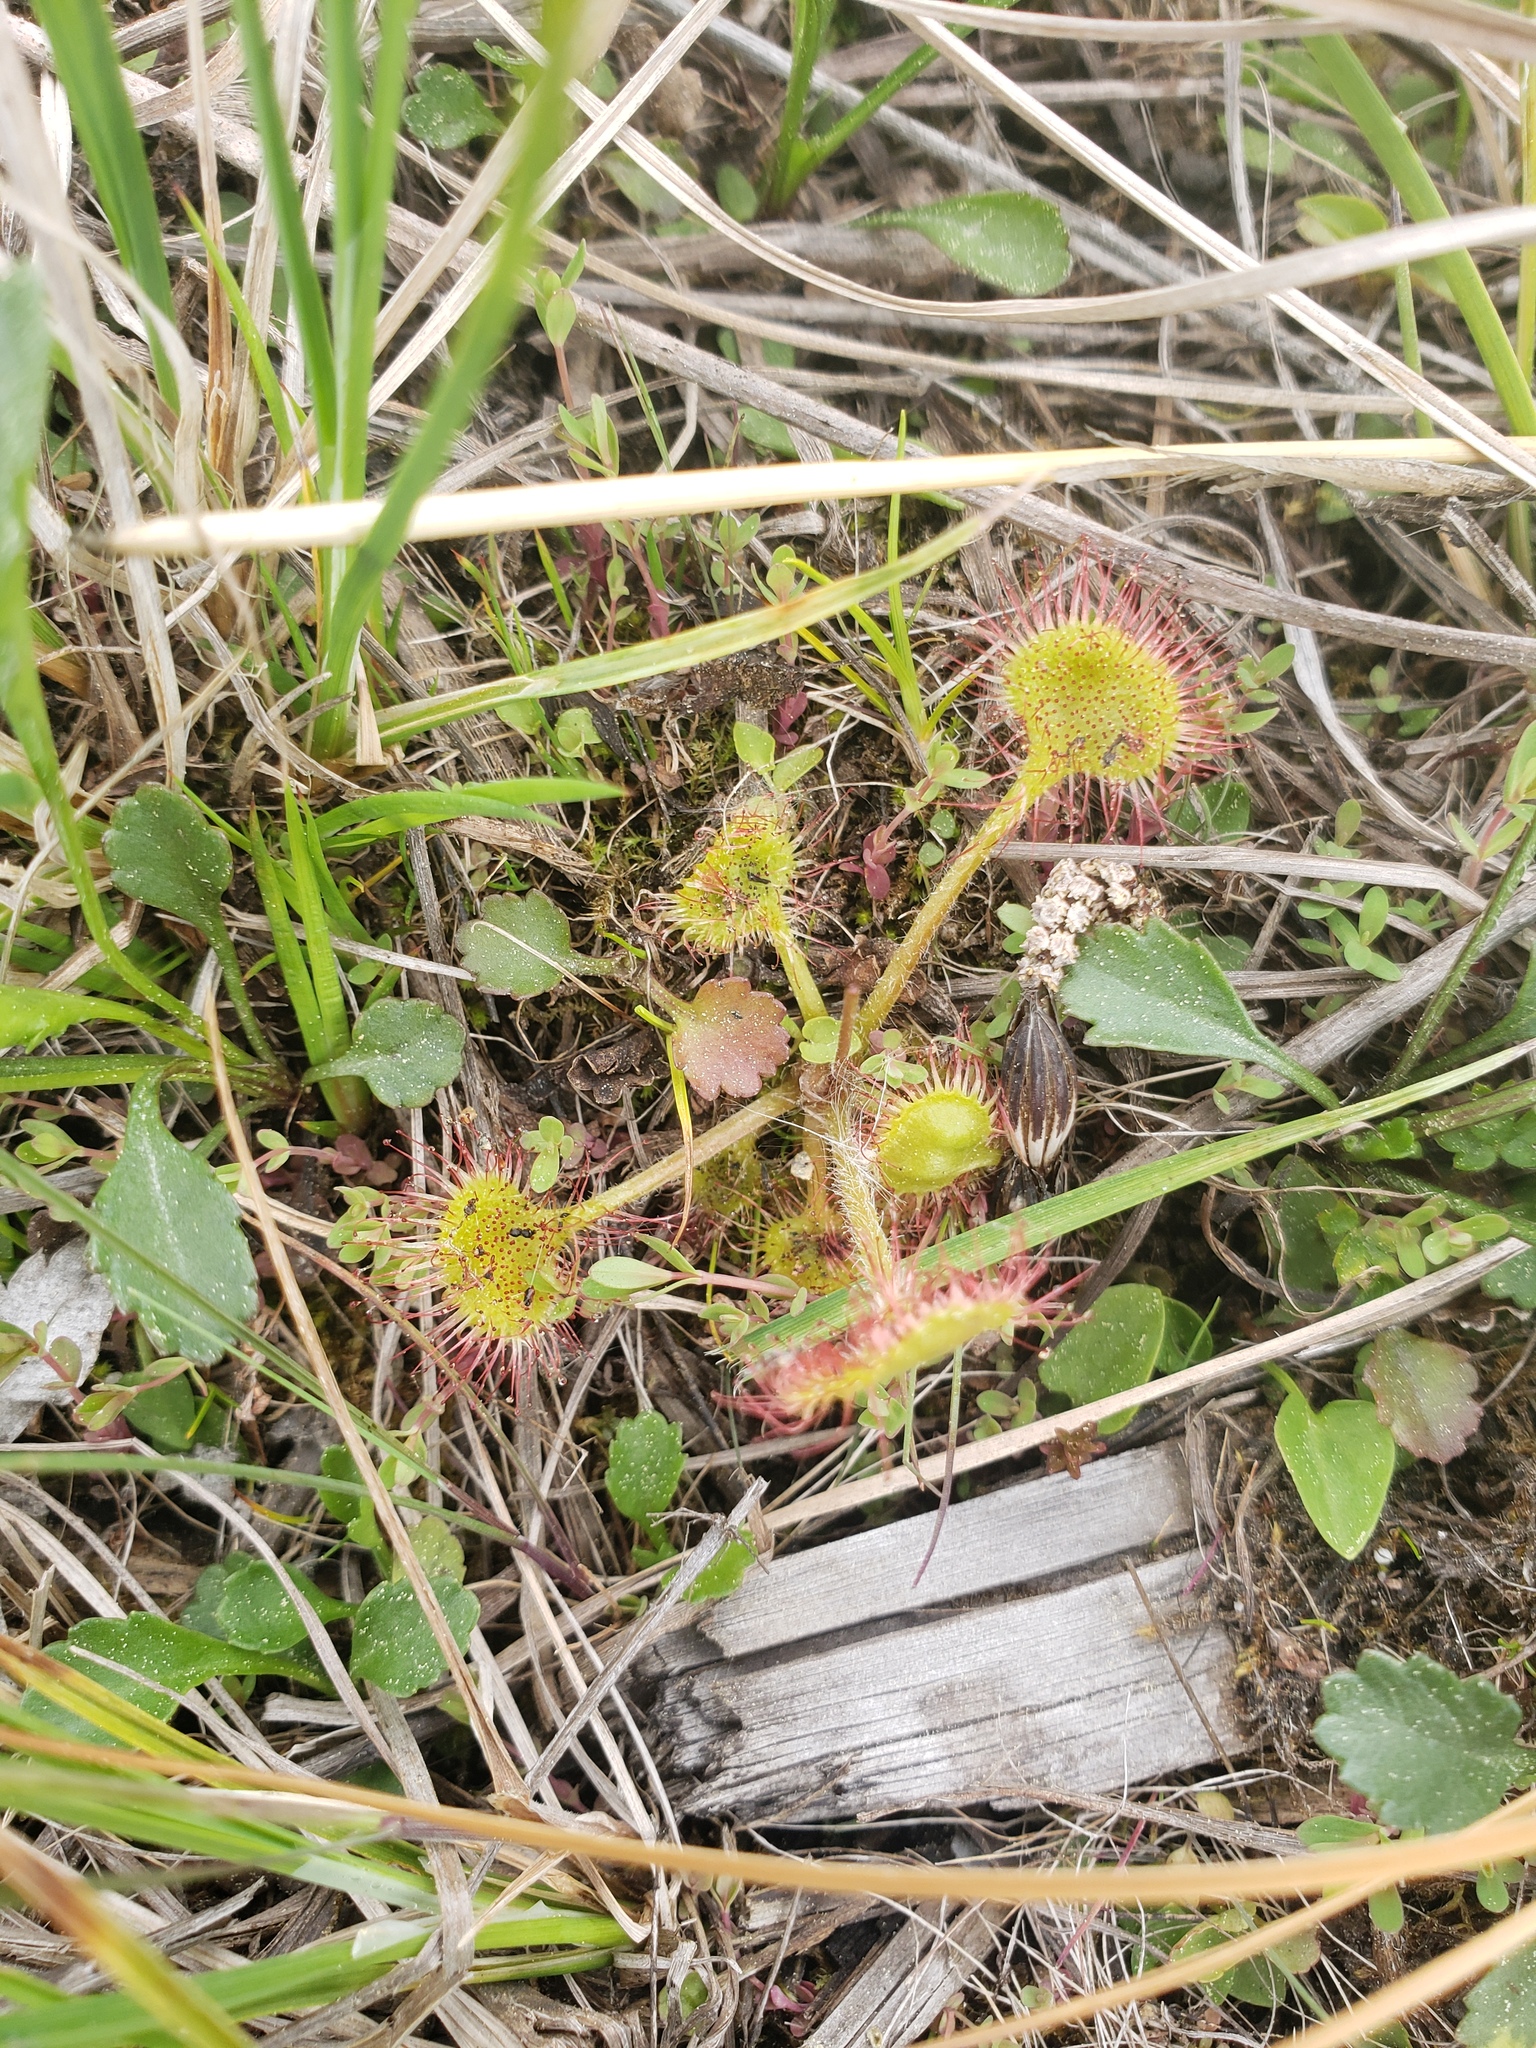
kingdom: Plantae
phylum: Tracheophyta
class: Magnoliopsida
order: Caryophyllales
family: Droseraceae
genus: Drosera
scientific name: Drosera rotundifolia
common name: Round-leaved sundew
